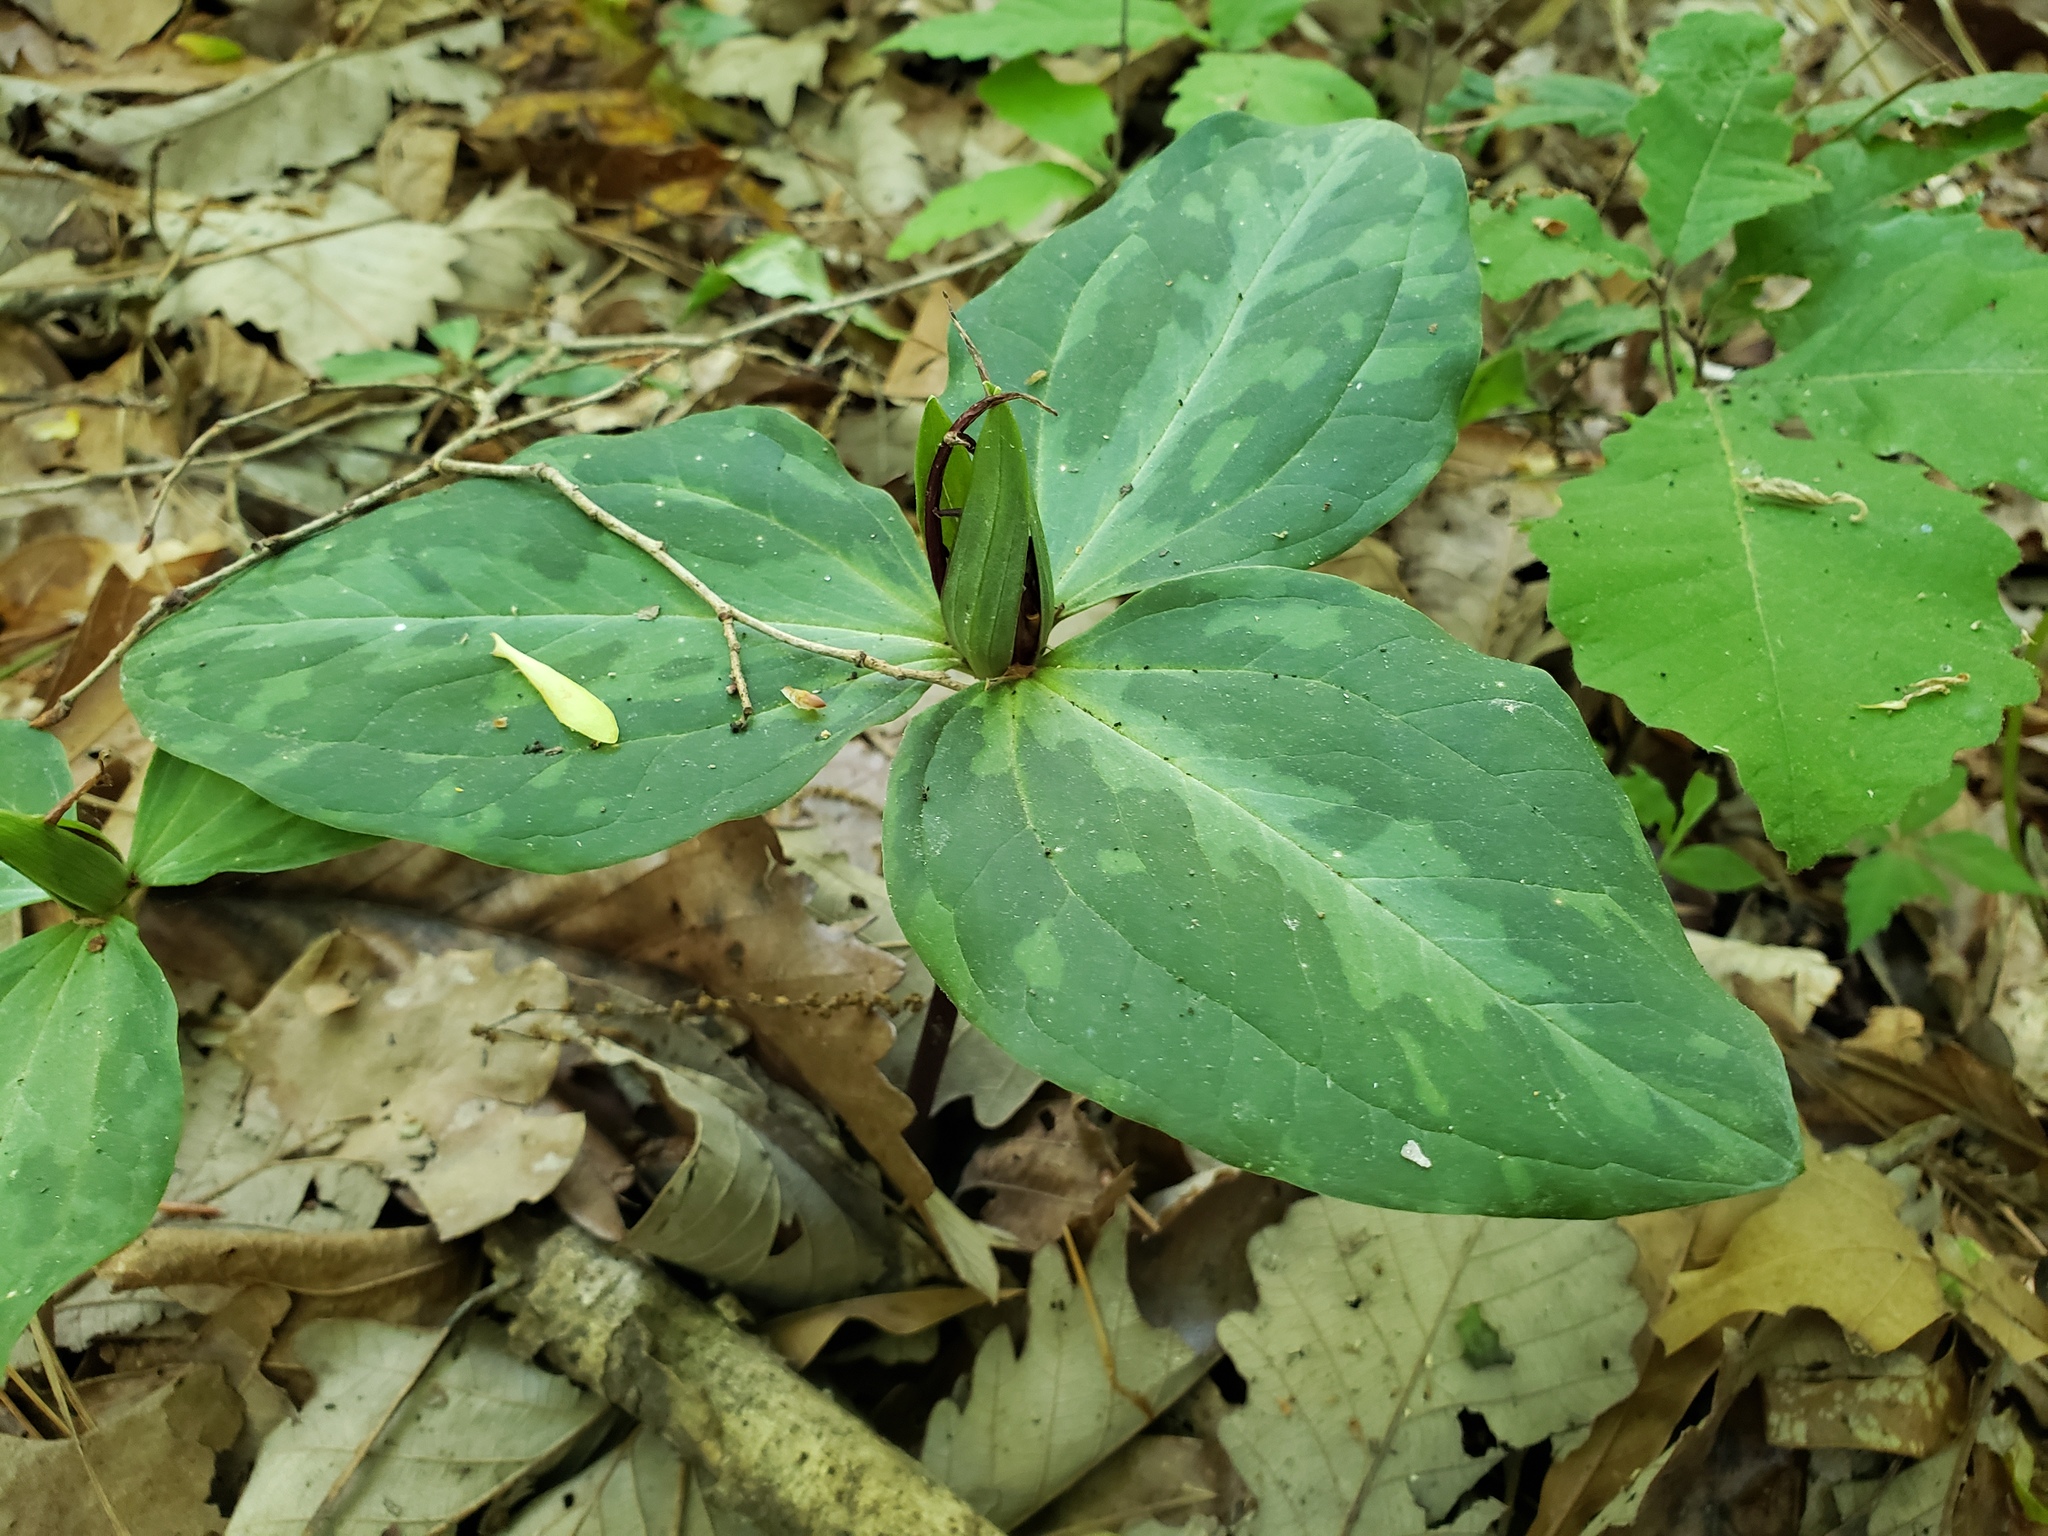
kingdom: Plantae
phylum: Tracheophyta
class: Liliopsida
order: Liliales
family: Melanthiaceae
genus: Trillium
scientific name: Trillium foetidissimum
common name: Mississippi river trillium
